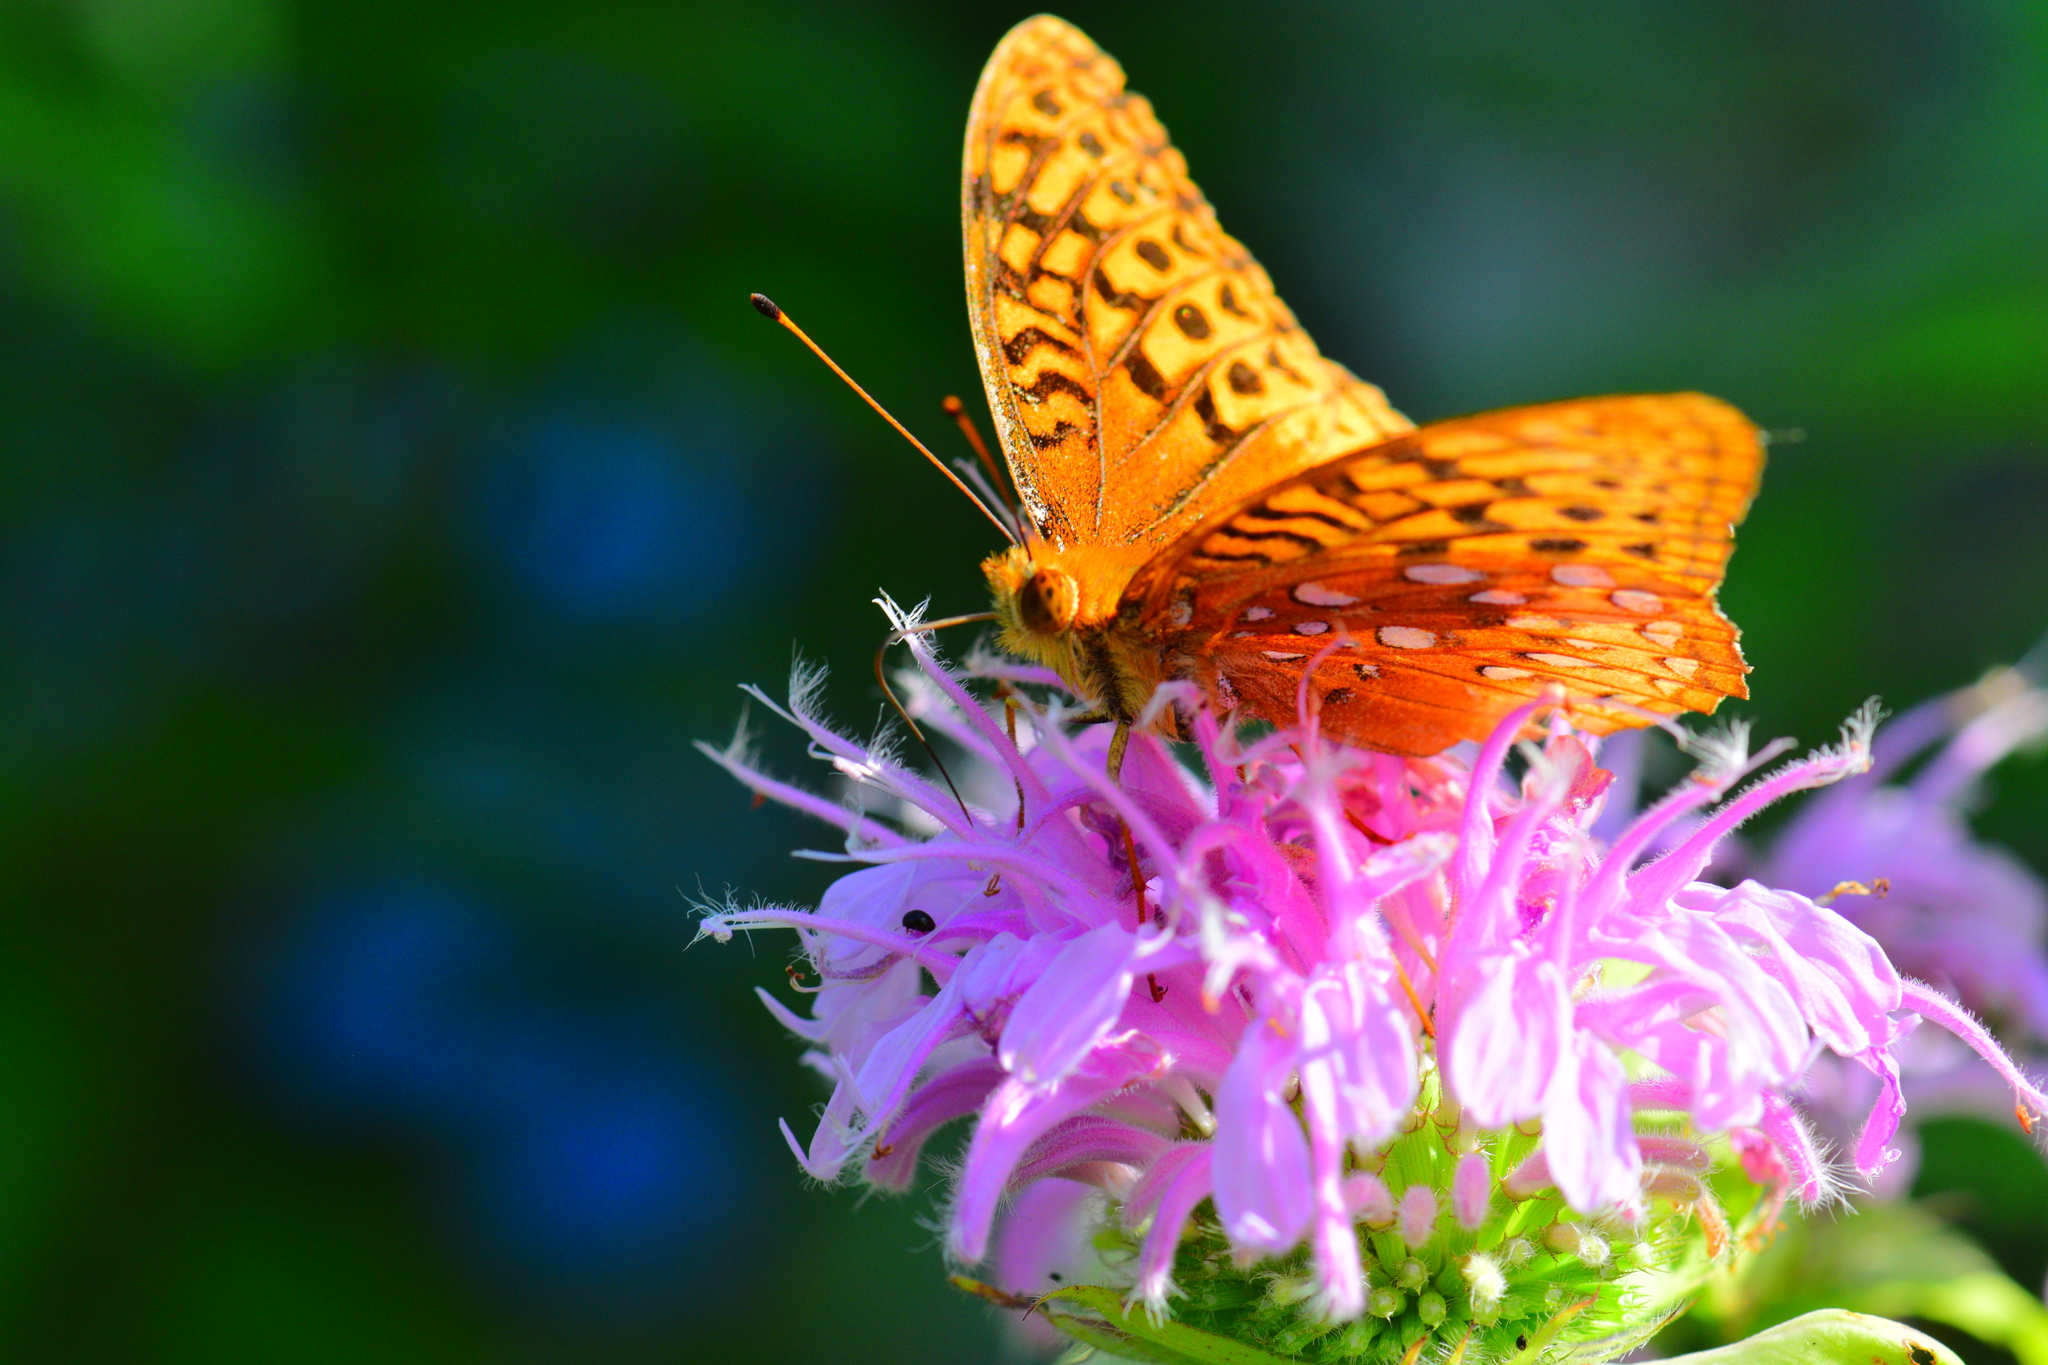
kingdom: Animalia
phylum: Arthropoda
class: Insecta
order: Lepidoptera
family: Nymphalidae
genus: Speyeria
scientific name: Speyeria cybele
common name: Great spangled fritillary
